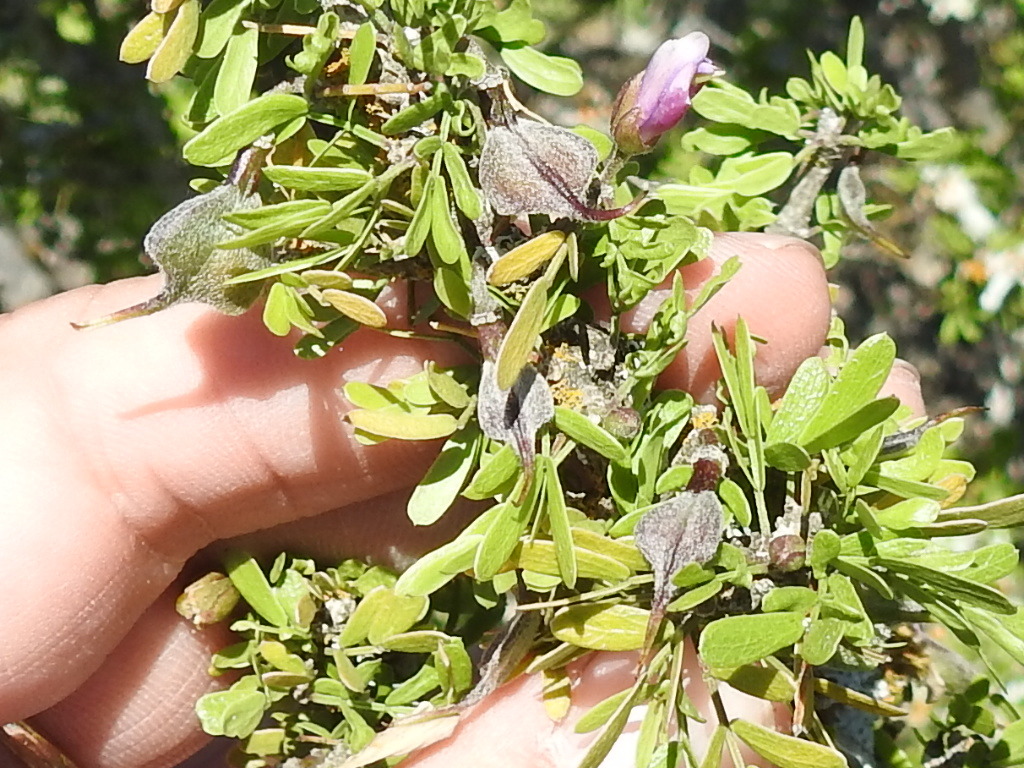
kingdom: Plantae
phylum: Tracheophyta
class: Magnoliopsida
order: Zygophyllales
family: Zygophyllaceae
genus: Porlieria
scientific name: Porlieria angustifolia
